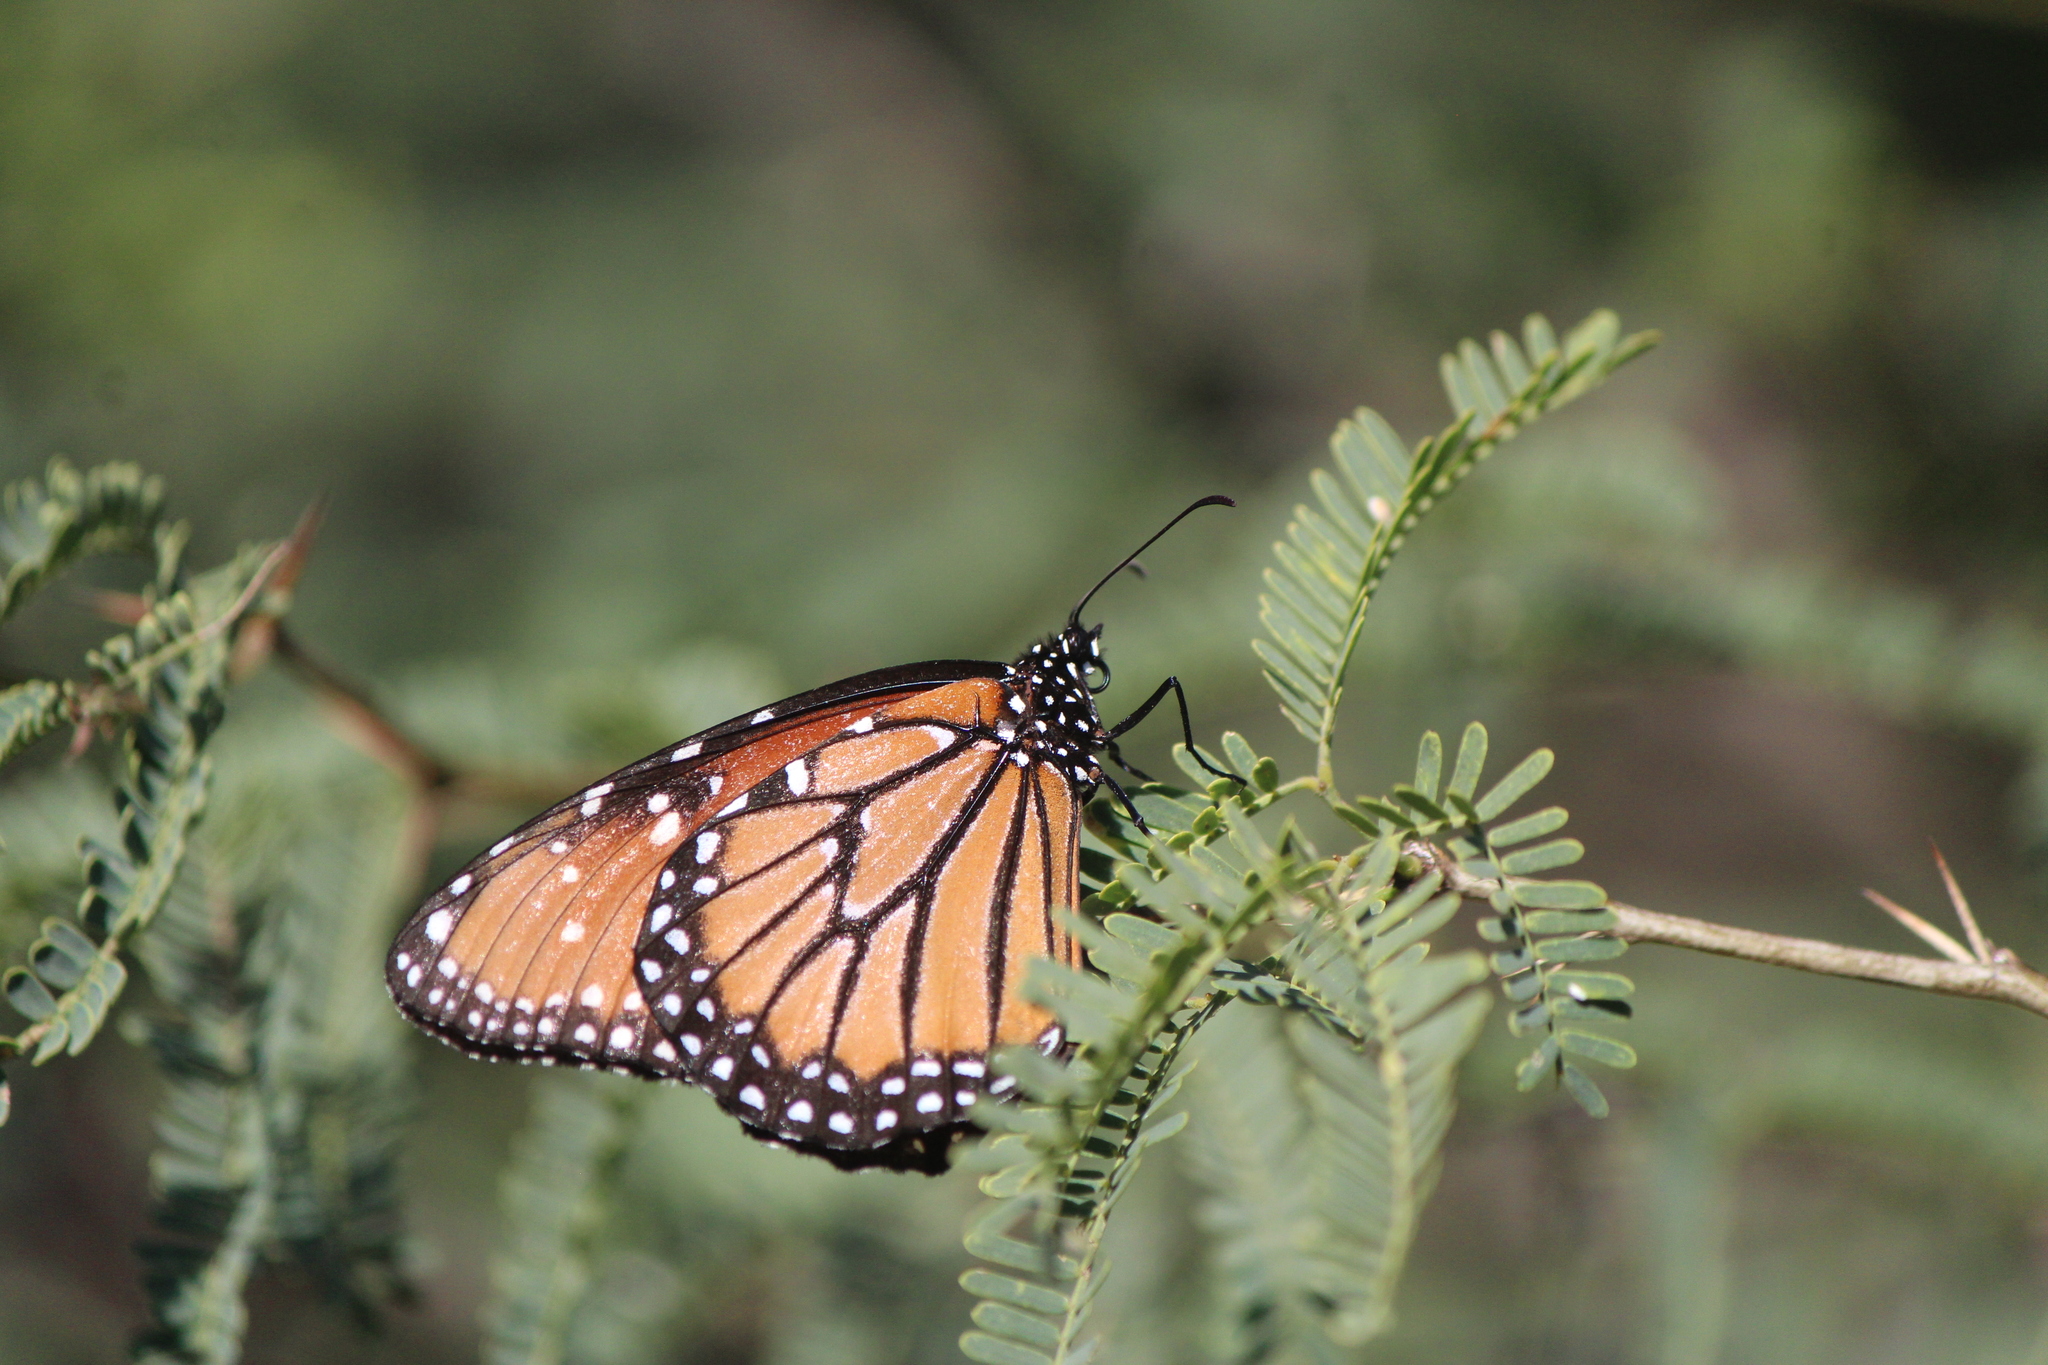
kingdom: Animalia
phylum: Arthropoda
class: Insecta
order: Lepidoptera
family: Nymphalidae
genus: Danaus
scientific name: Danaus gilippus
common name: Queen
